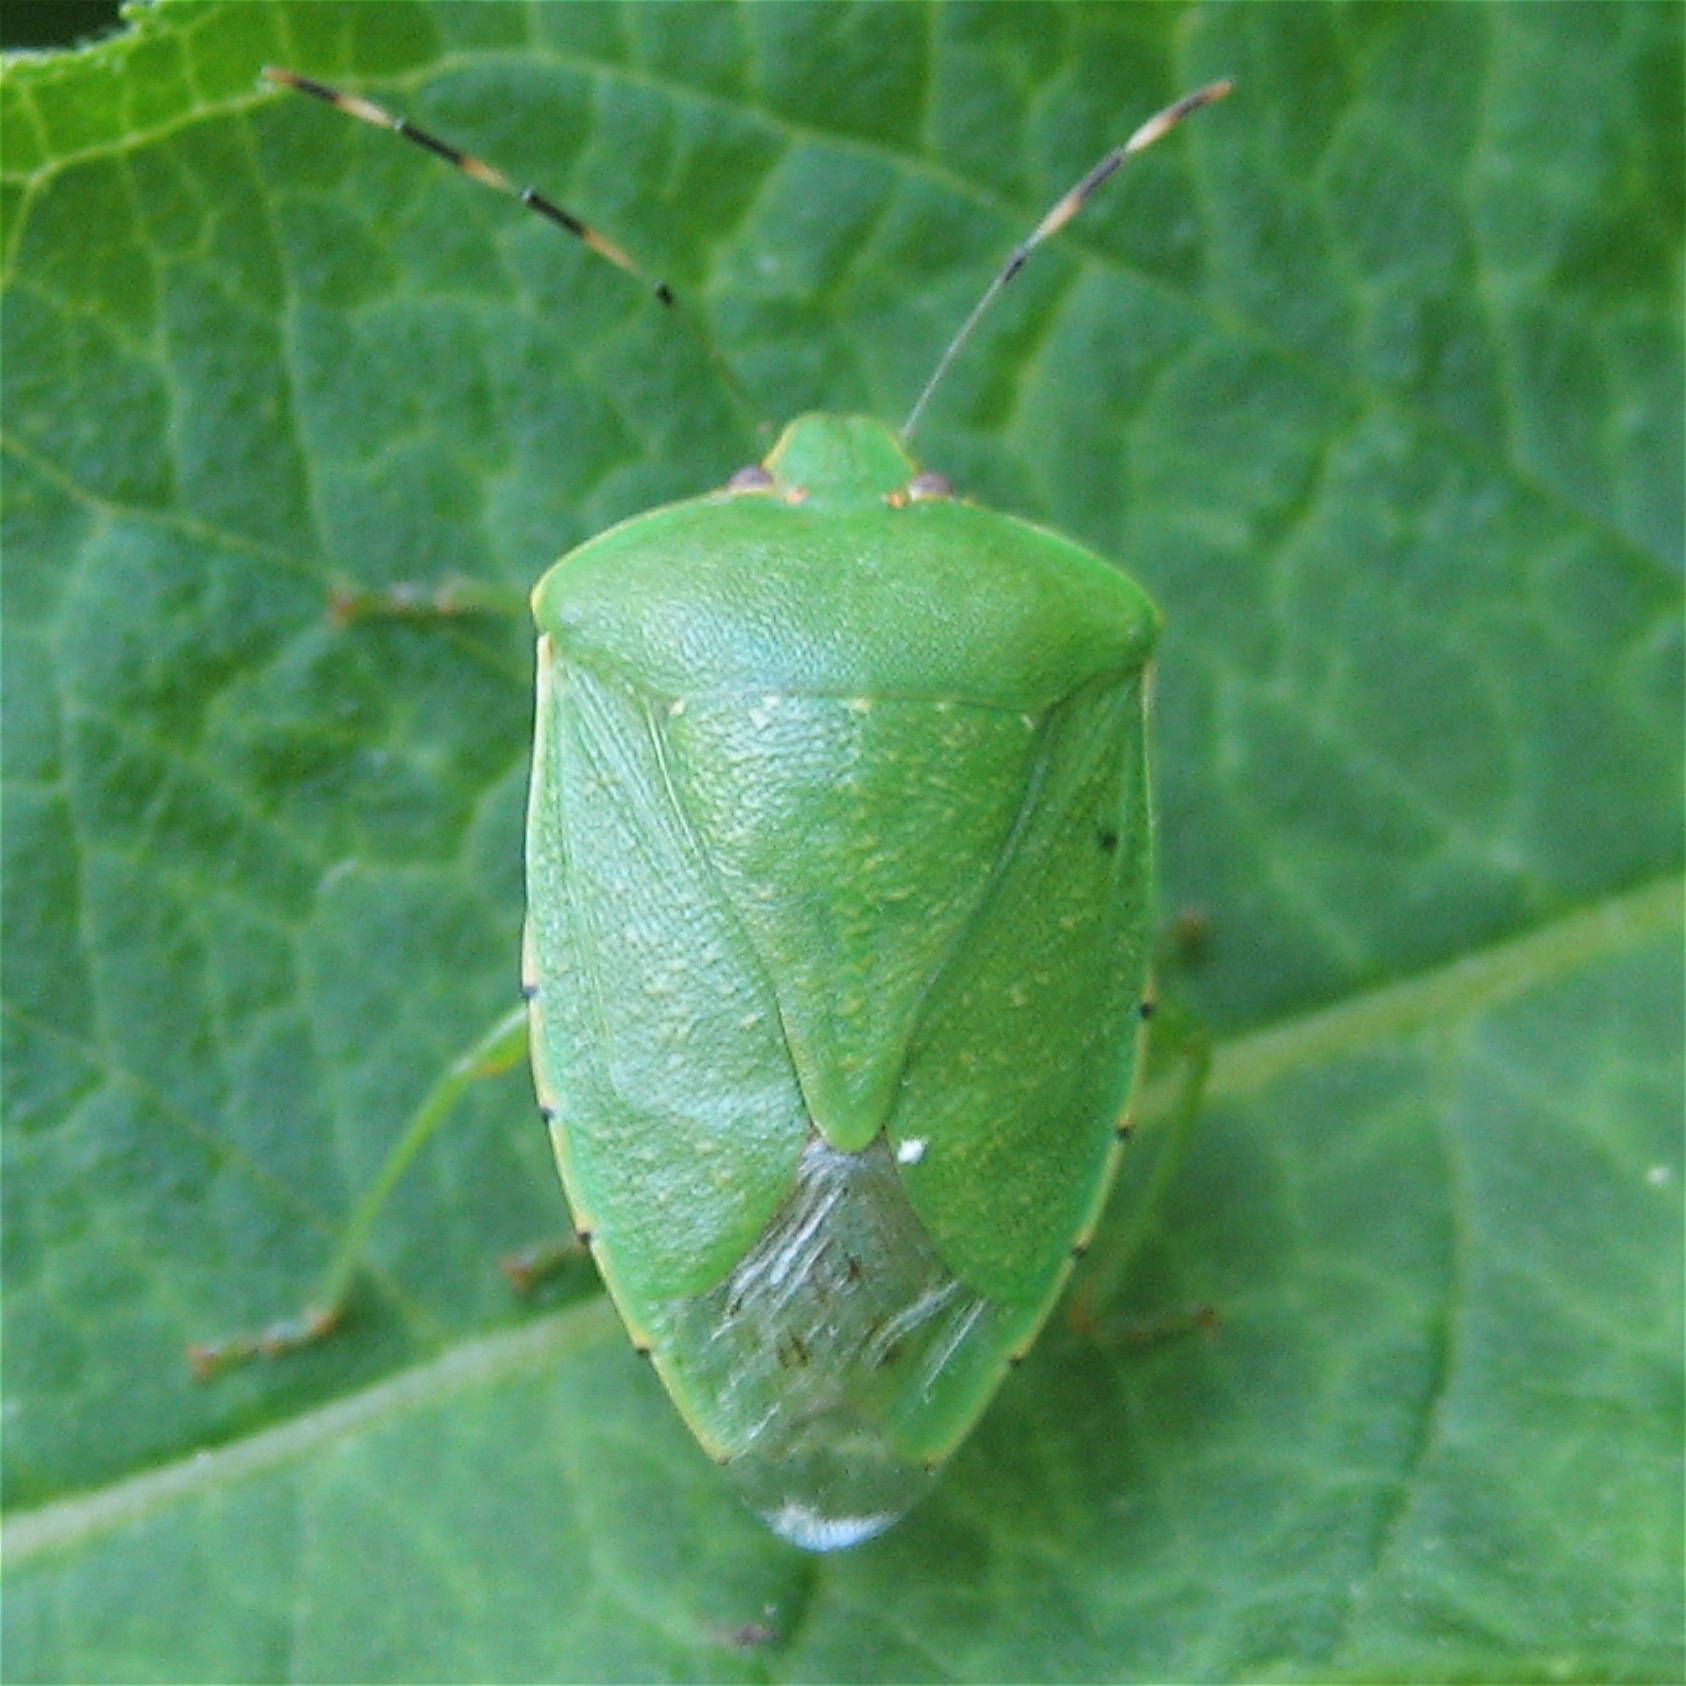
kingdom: Animalia
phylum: Arthropoda
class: Insecta
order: Hemiptera
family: Pentatomidae
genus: Chinavia
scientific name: Chinavia hilaris
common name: Green stink bug
